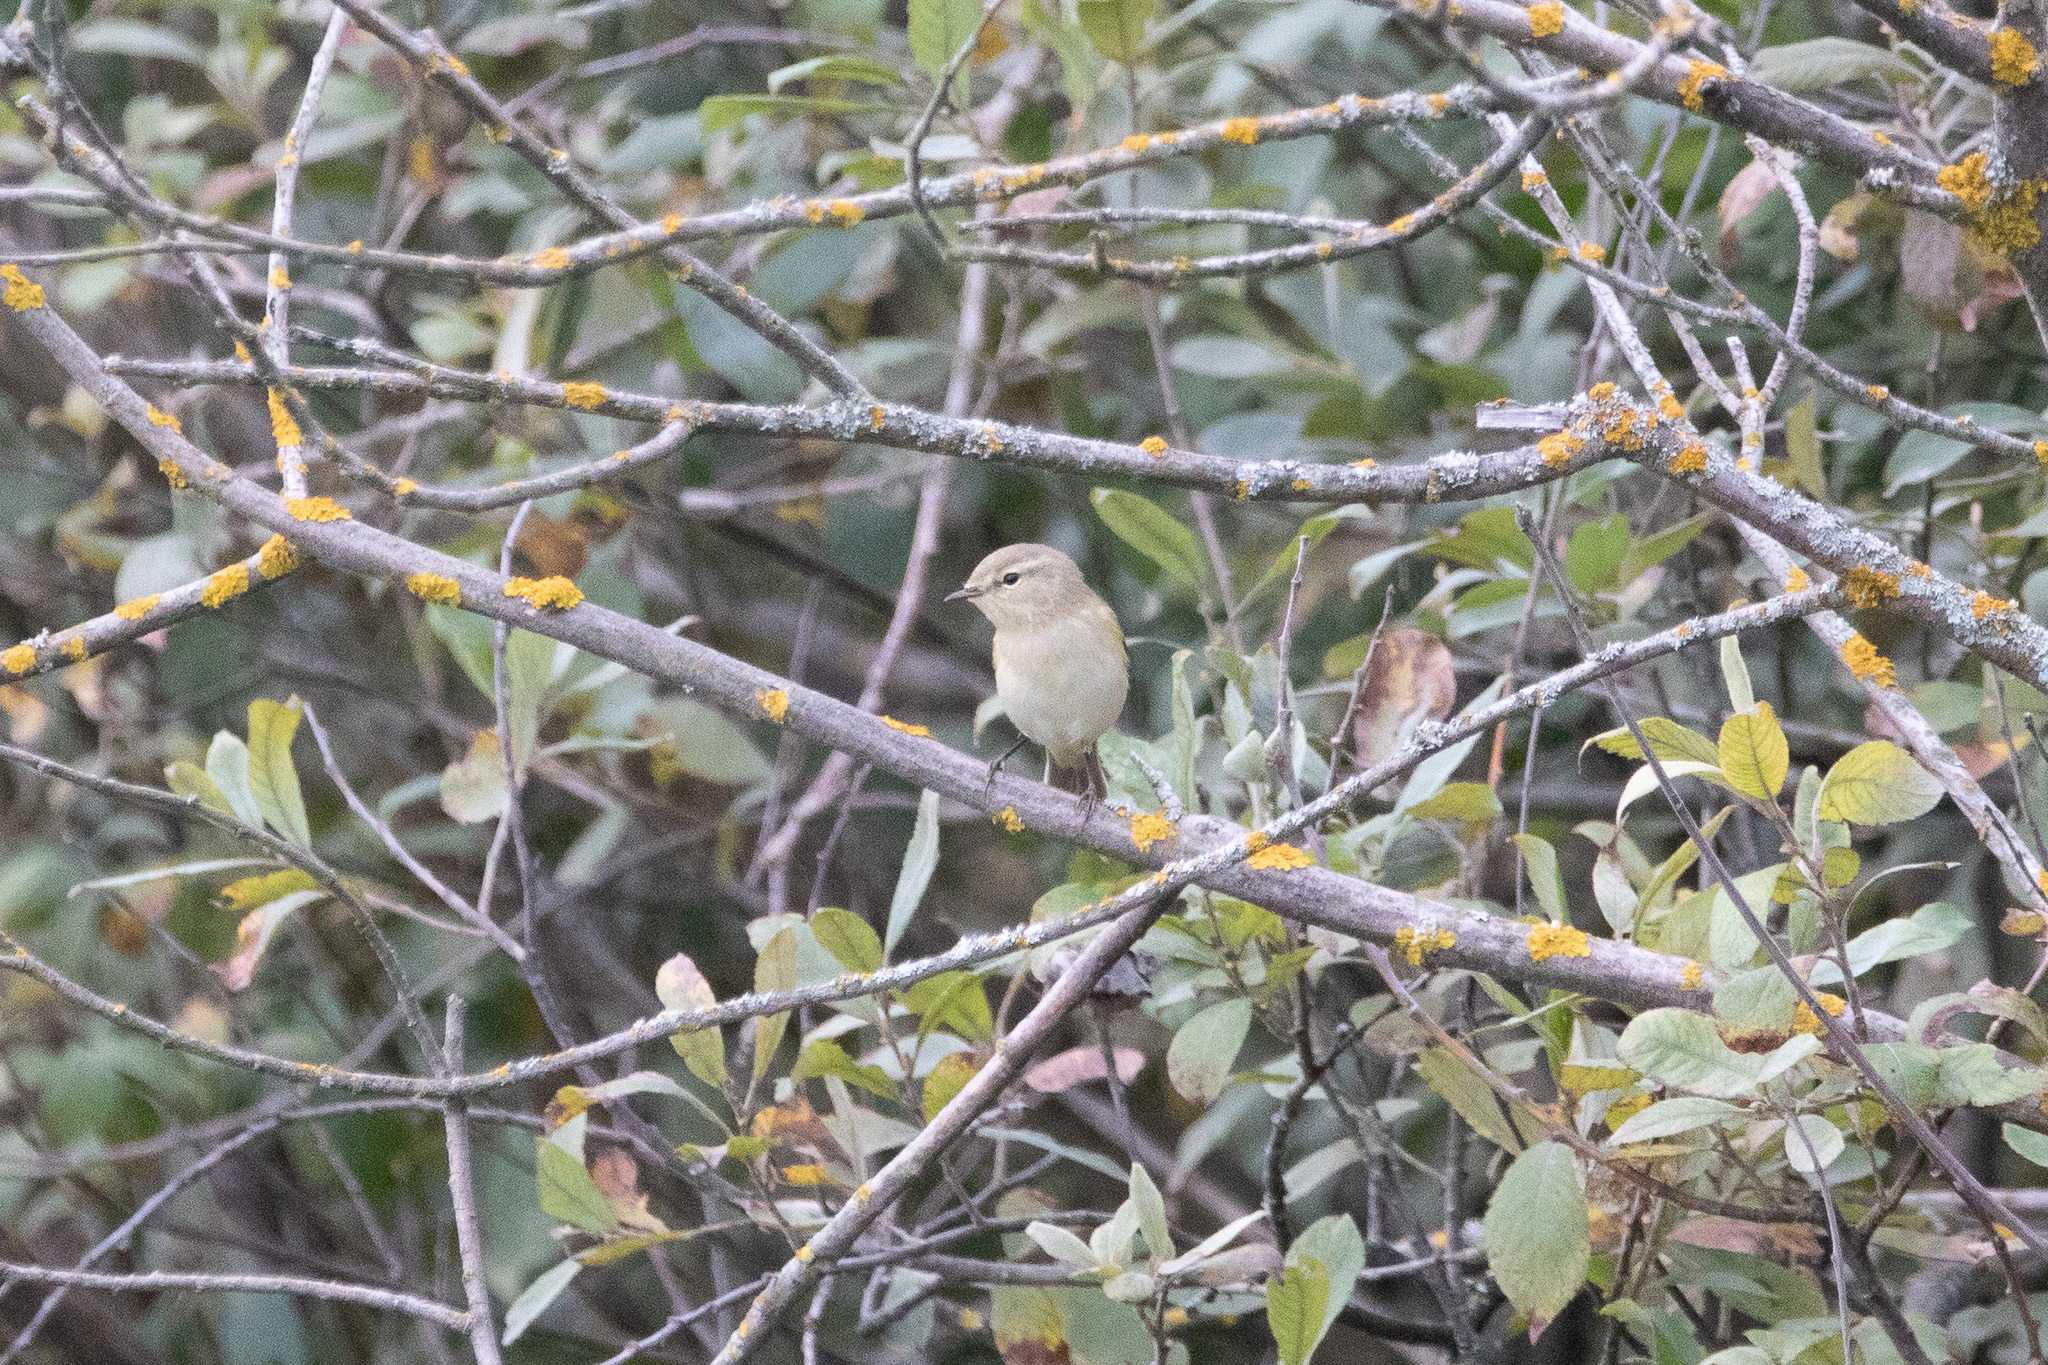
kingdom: Animalia
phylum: Chordata
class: Aves
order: Passeriformes
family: Phylloscopidae
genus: Phylloscopus
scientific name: Phylloscopus collybita
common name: Common chiffchaff
